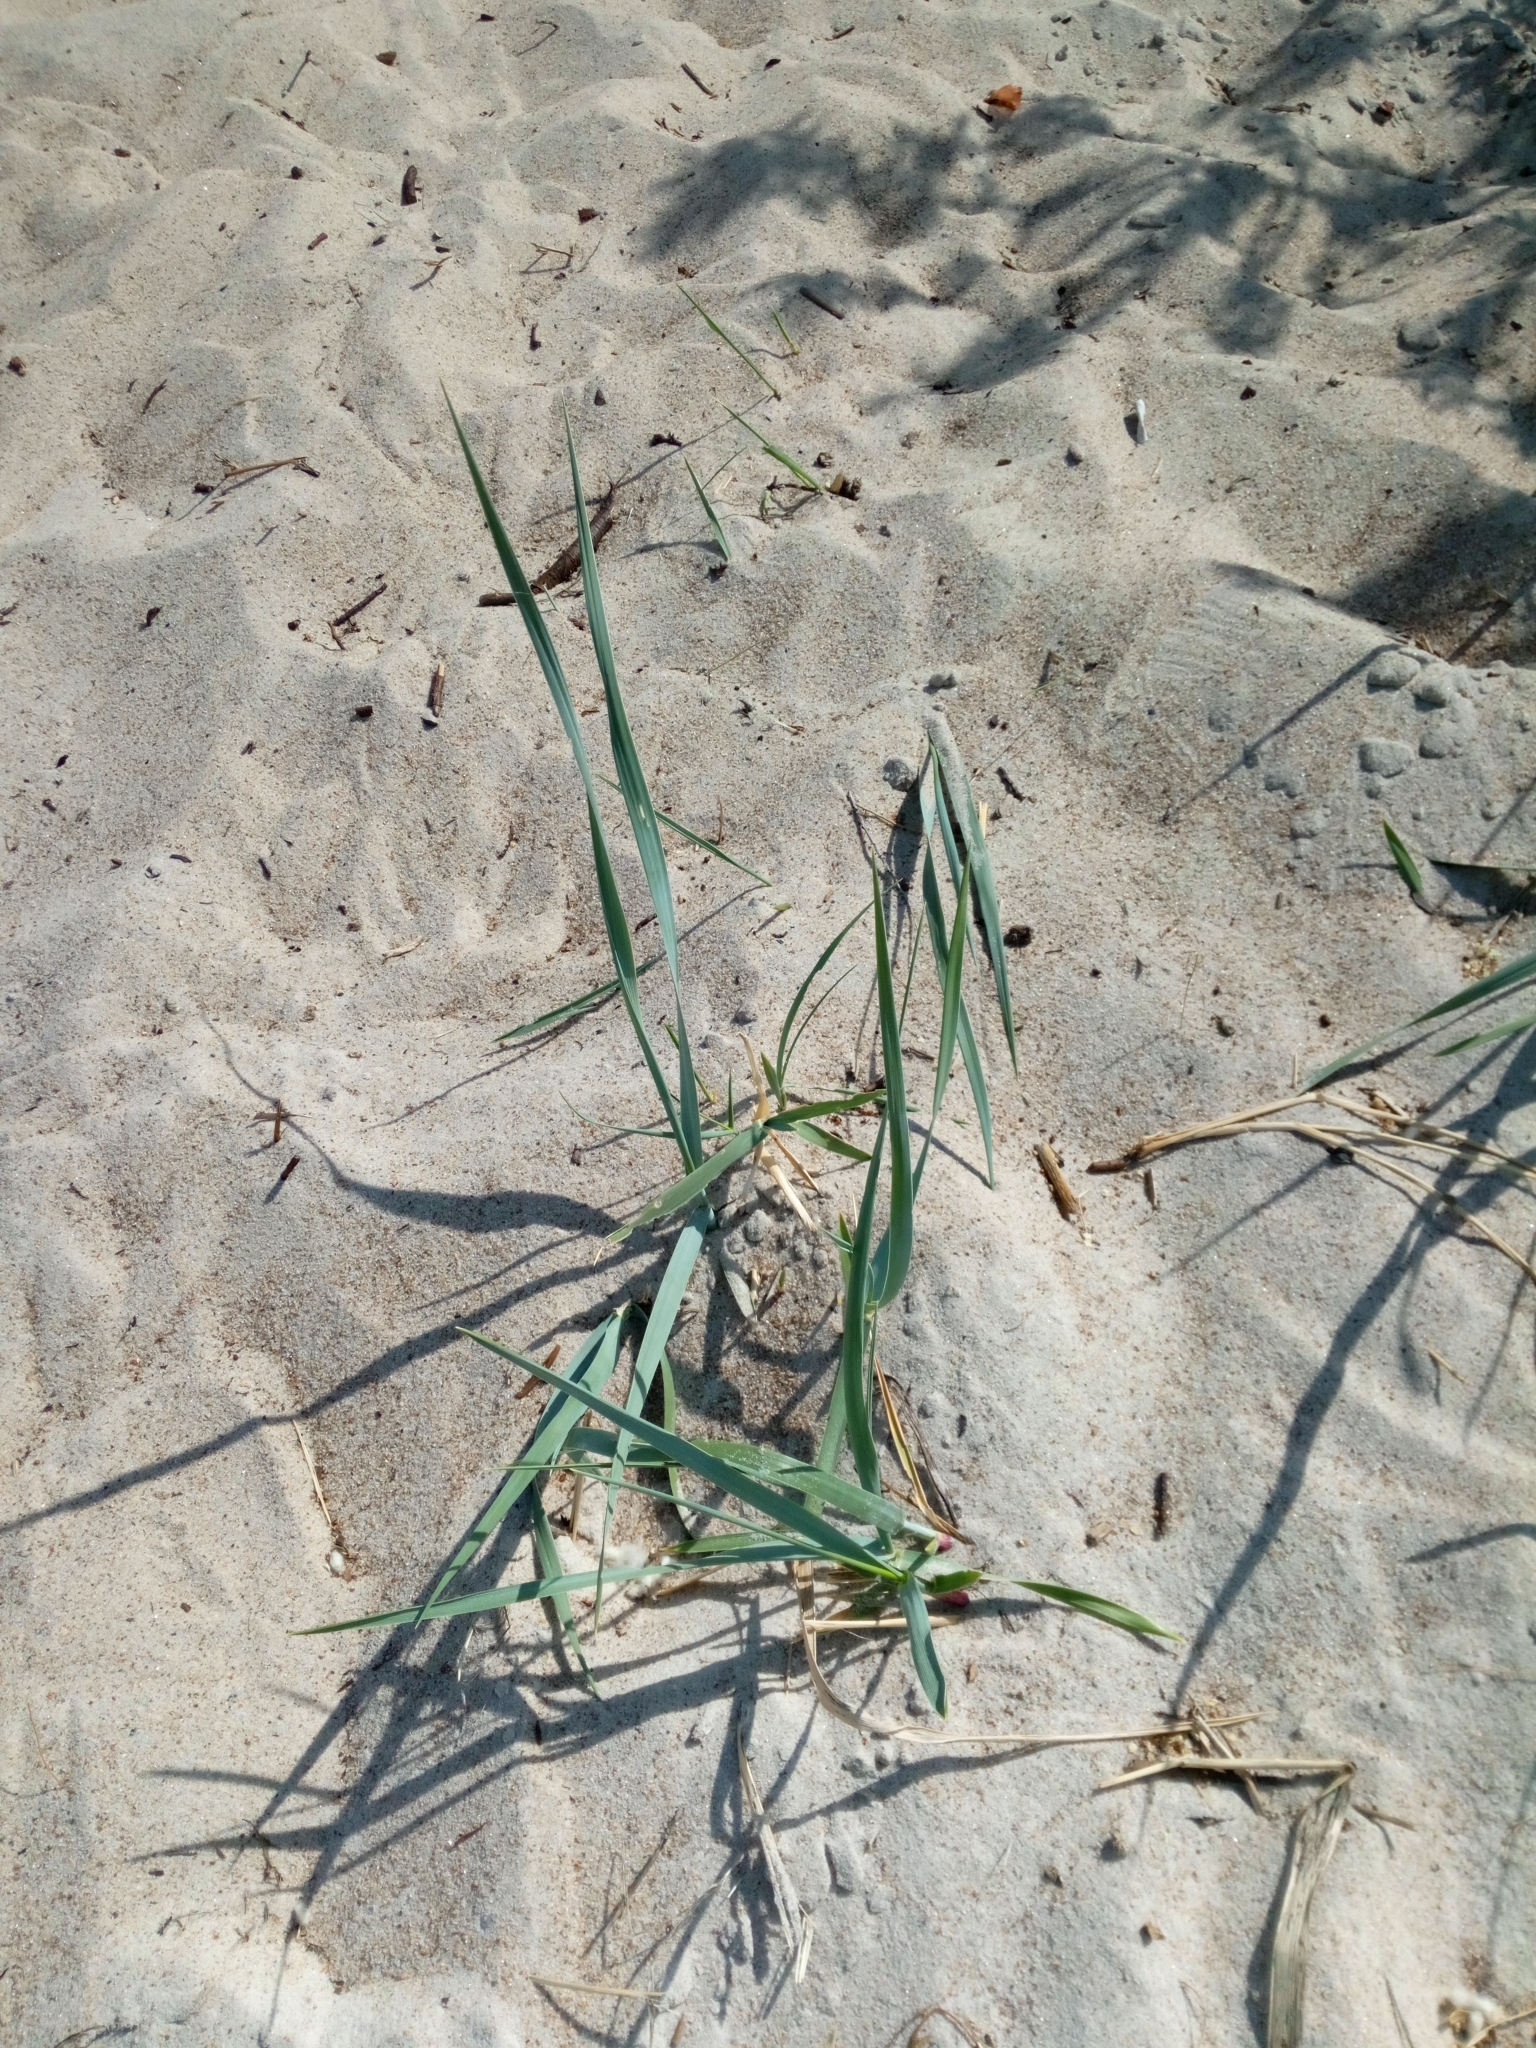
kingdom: Plantae
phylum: Tracheophyta
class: Liliopsida
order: Poales
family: Poaceae
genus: Leymus
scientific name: Leymus arenarius
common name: Lyme-grass
